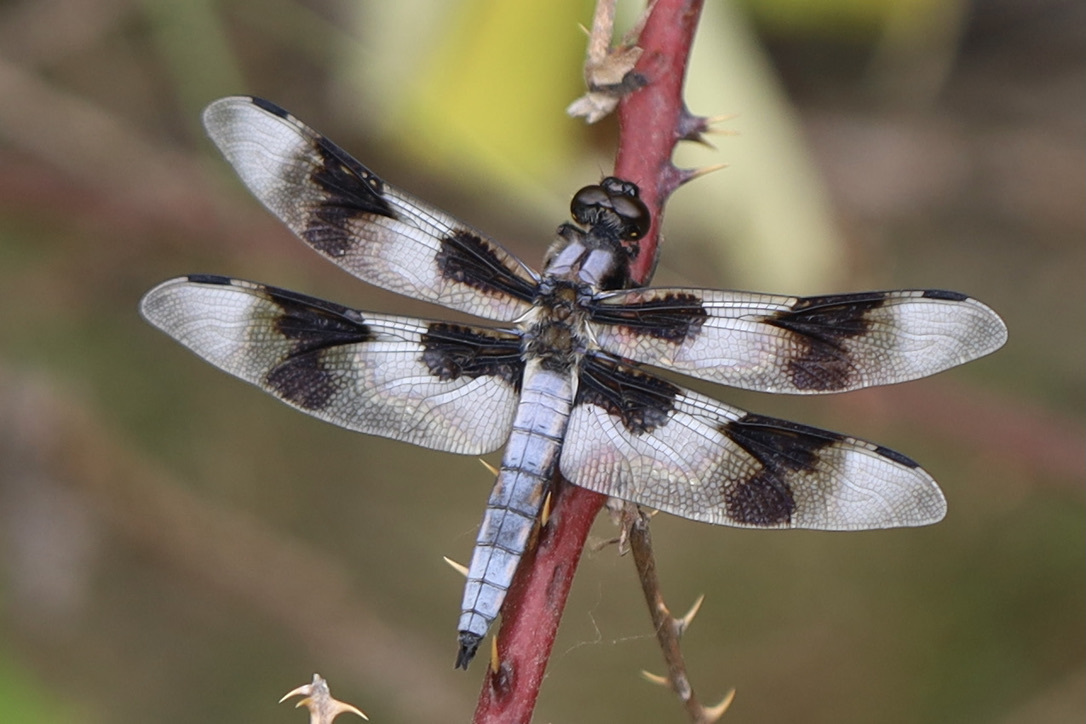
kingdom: Animalia
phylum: Arthropoda
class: Insecta
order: Odonata
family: Libellulidae
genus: Libellula
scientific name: Libellula forensis
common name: Eight-spotted skimmer
